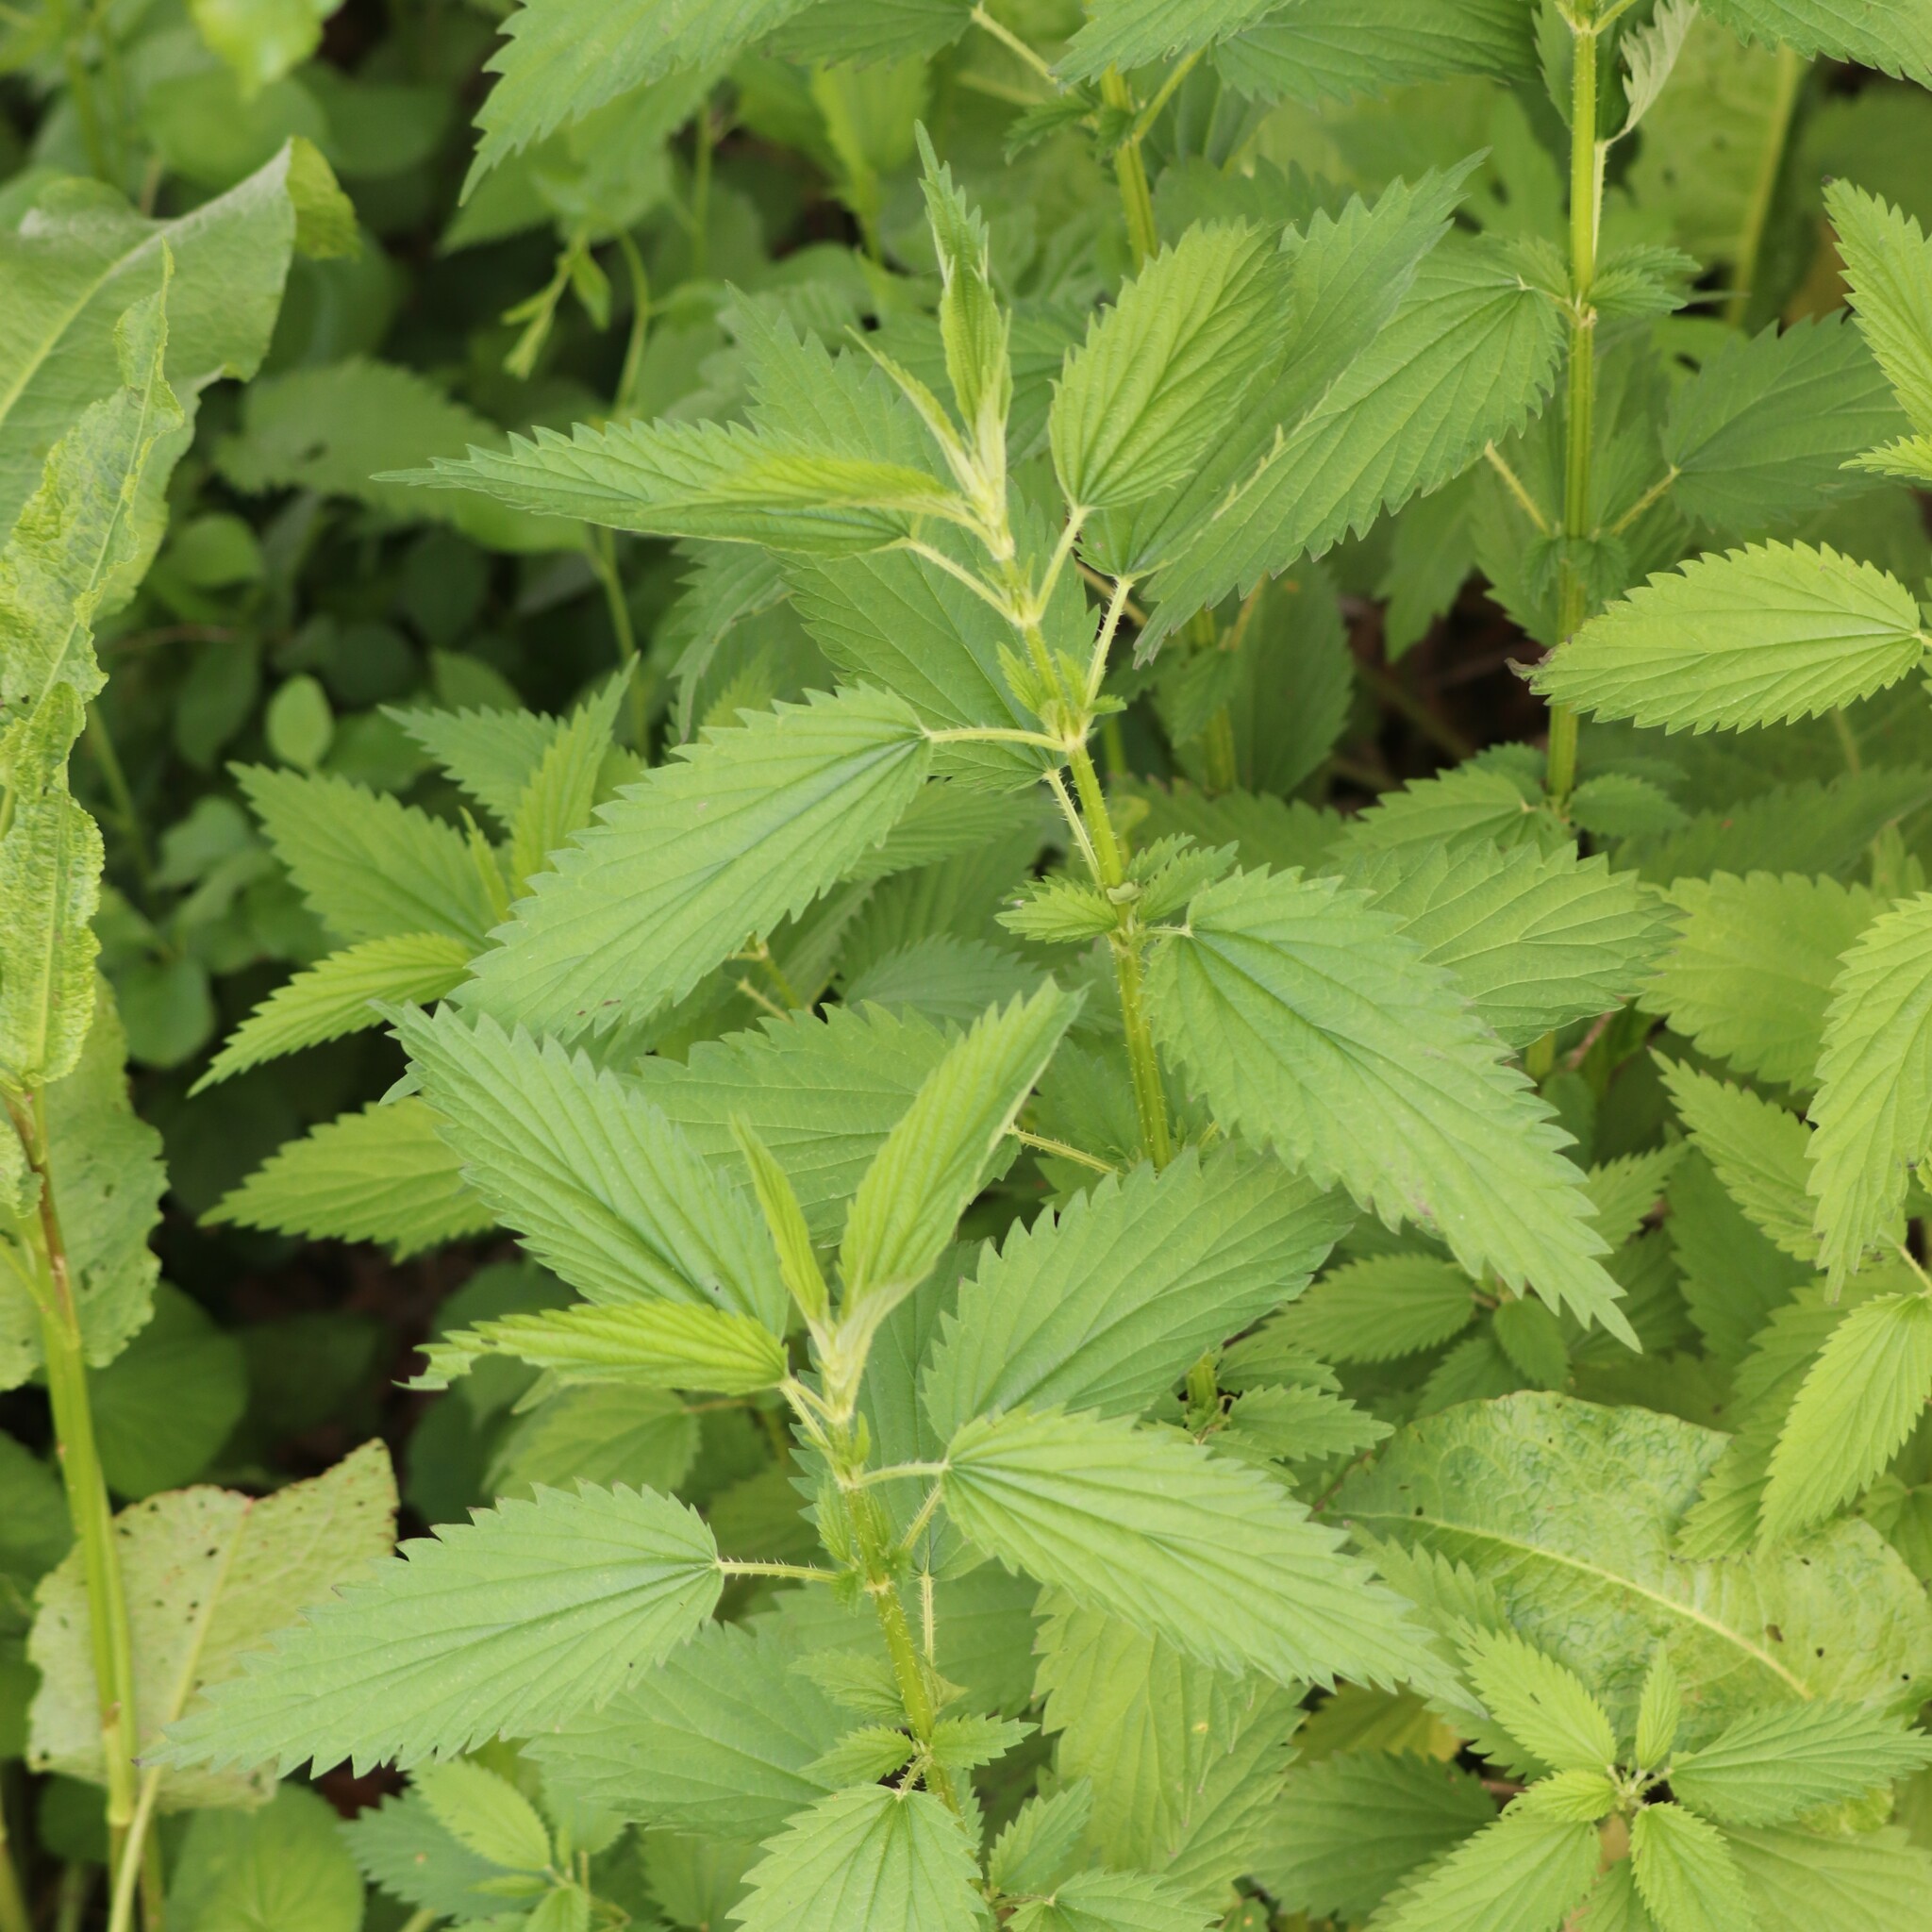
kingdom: Plantae
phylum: Tracheophyta
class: Magnoliopsida
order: Rosales
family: Urticaceae
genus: Urtica
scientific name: Urtica dioica
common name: Common nettle
